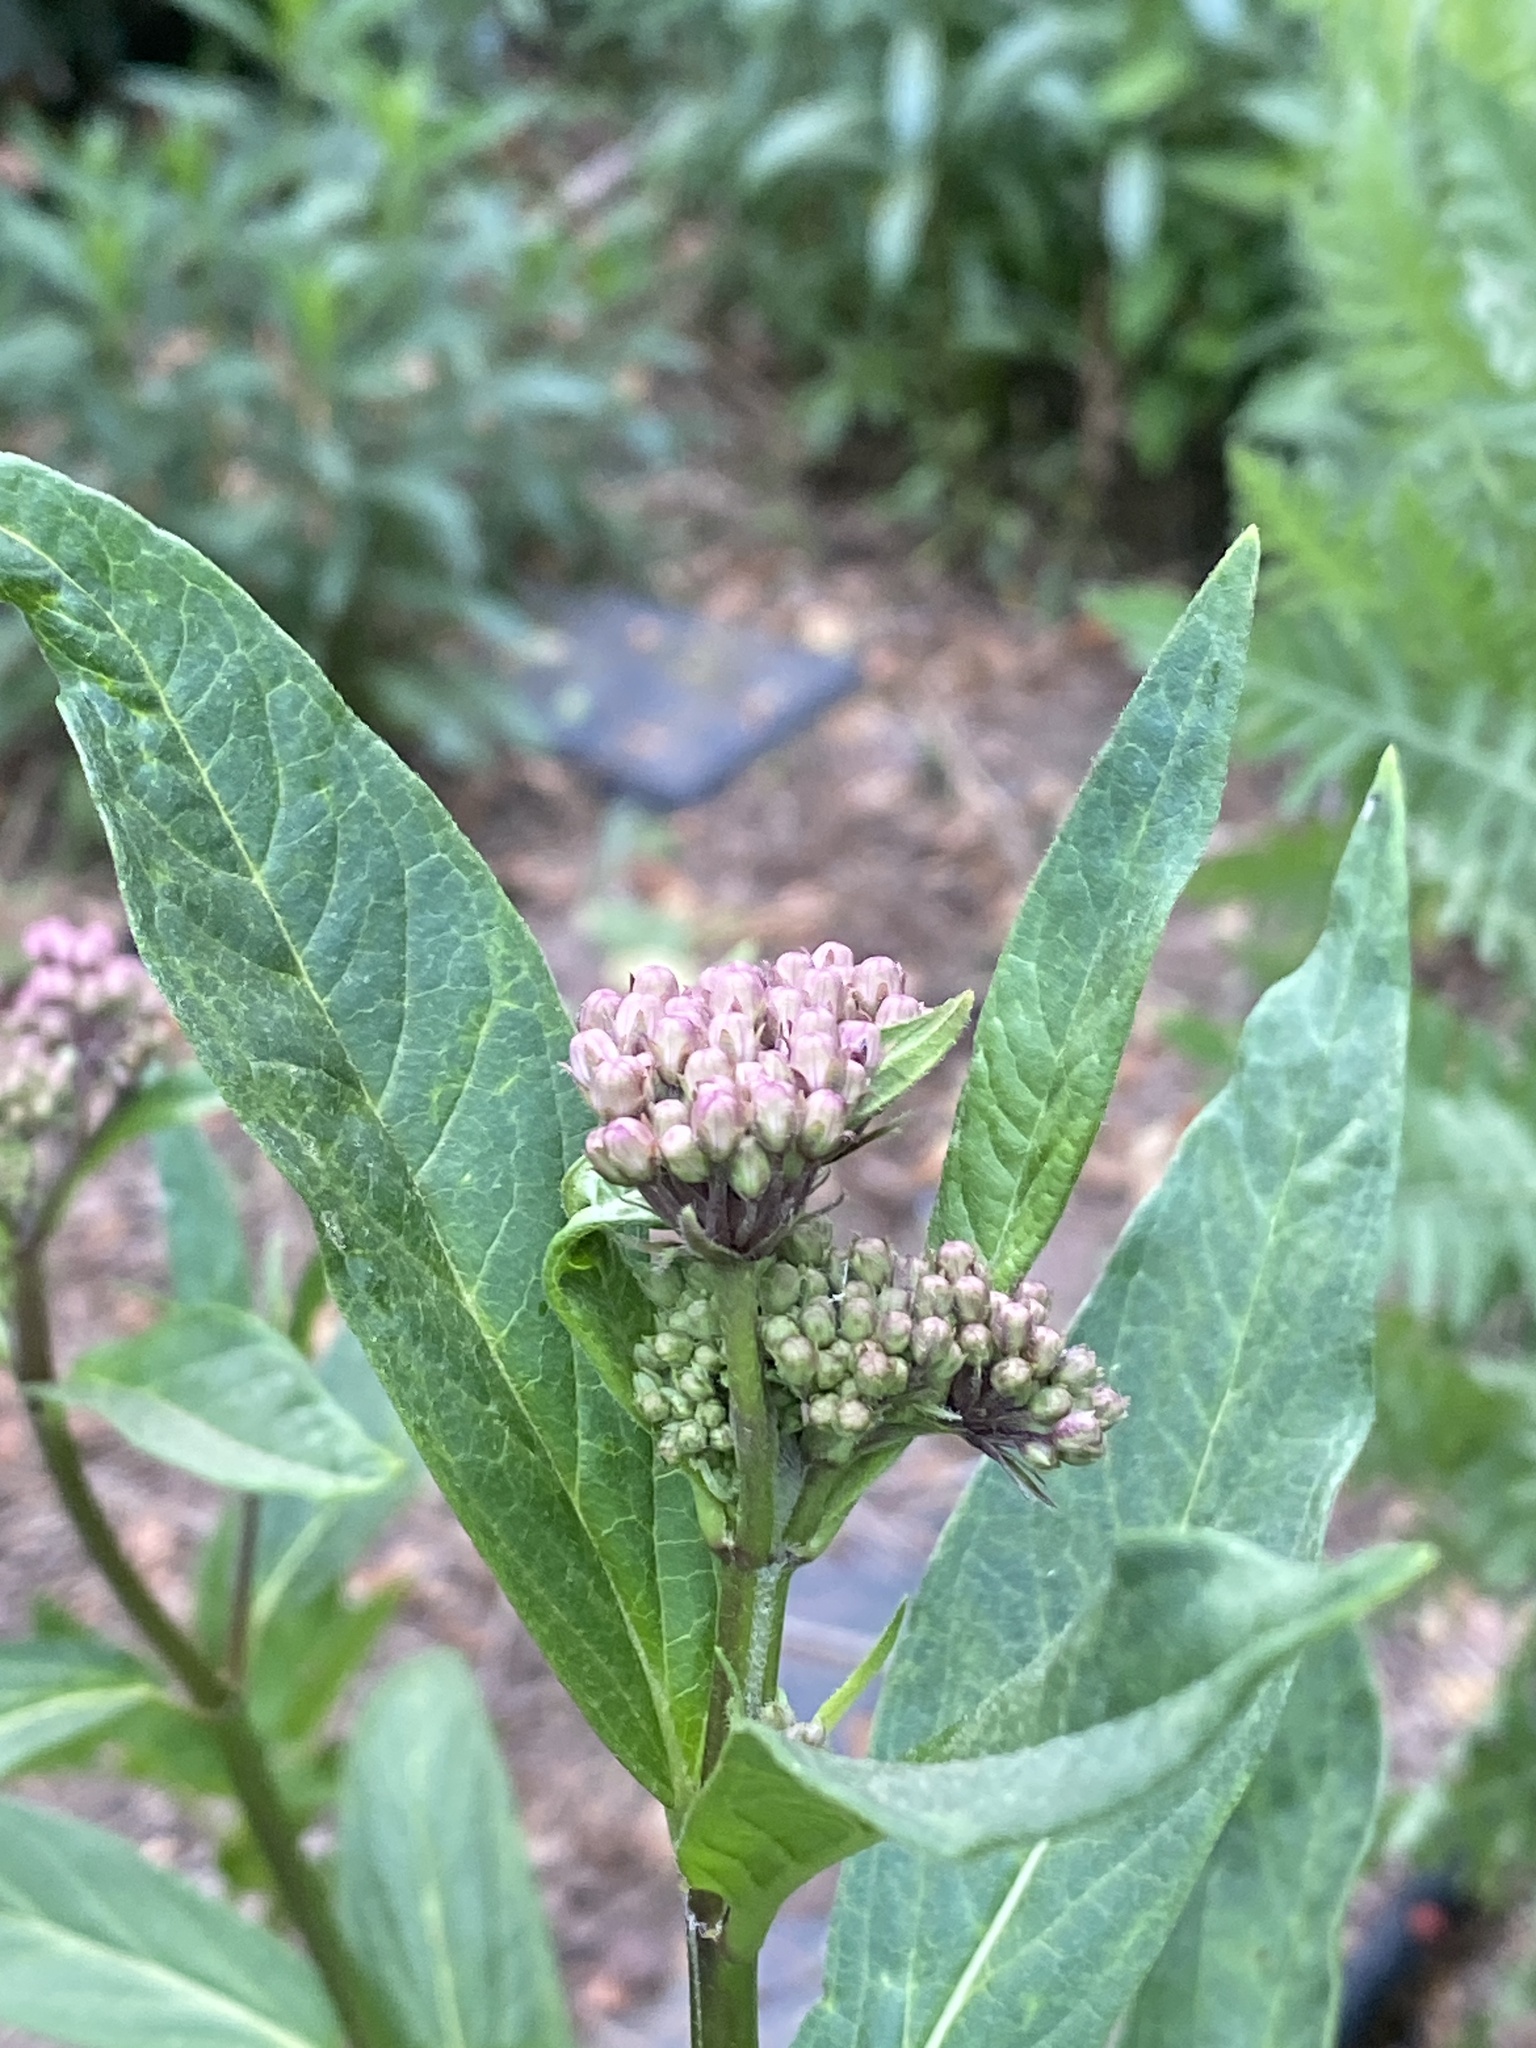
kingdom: Plantae
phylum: Tracheophyta
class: Magnoliopsida
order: Gentianales
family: Apocynaceae
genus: Asclepias
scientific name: Asclepias incarnata
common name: Swamp milkweed
